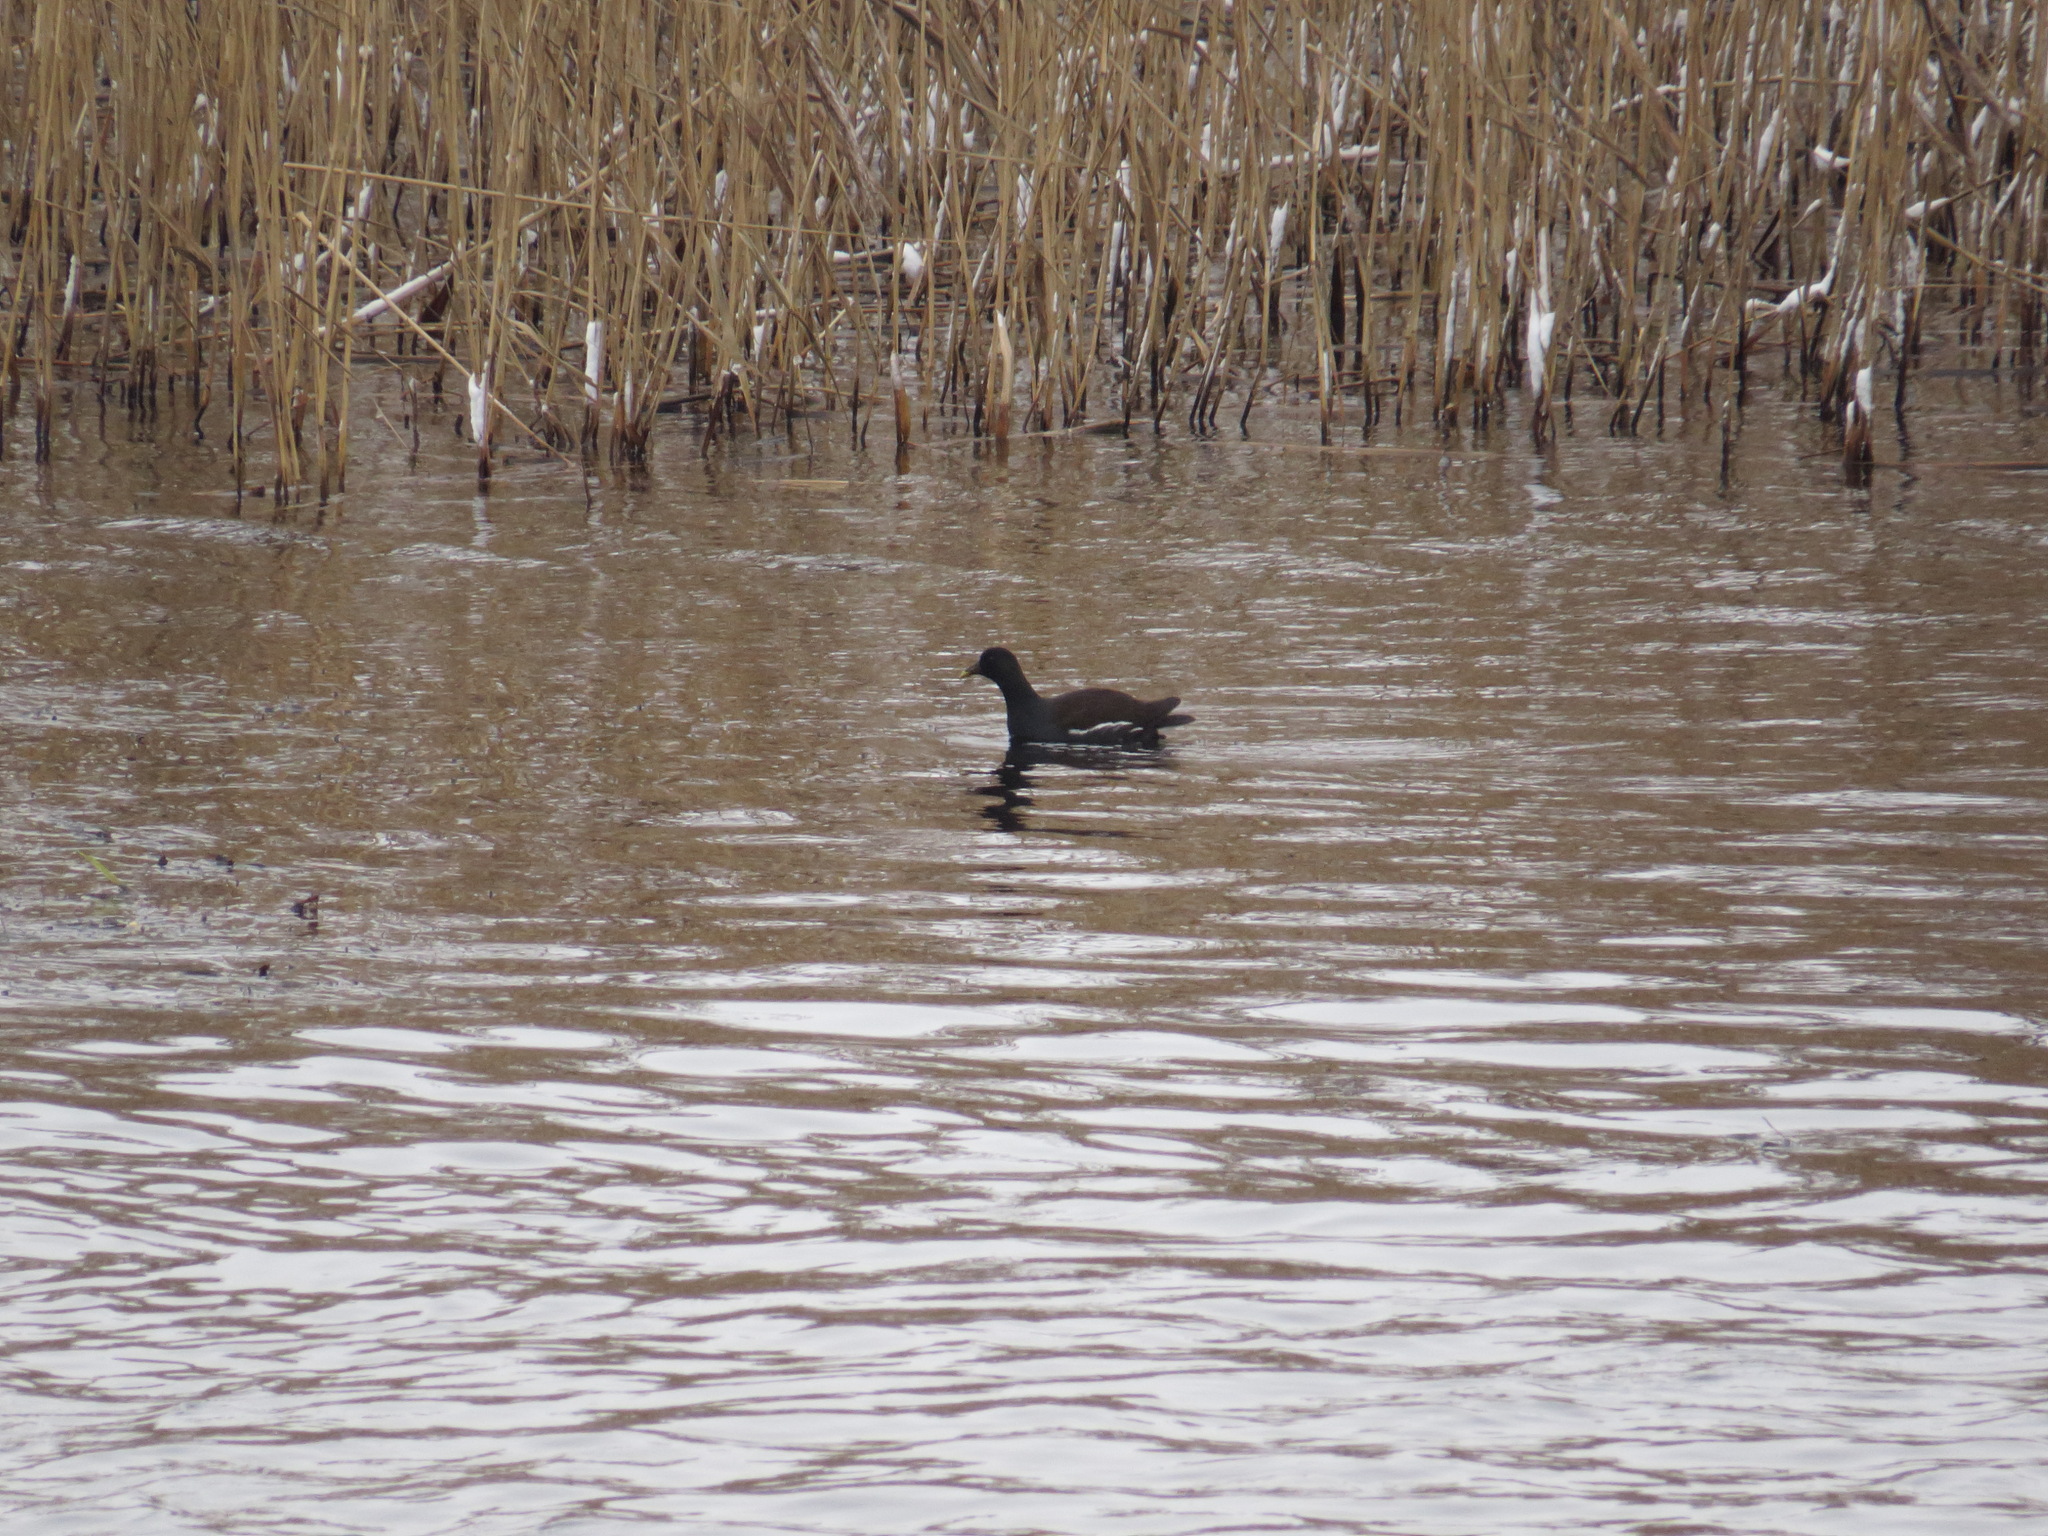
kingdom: Animalia
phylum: Chordata
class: Aves
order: Gruiformes
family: Rallidae
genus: Gallinula
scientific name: Gallinula chloropus
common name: Common moorhen
